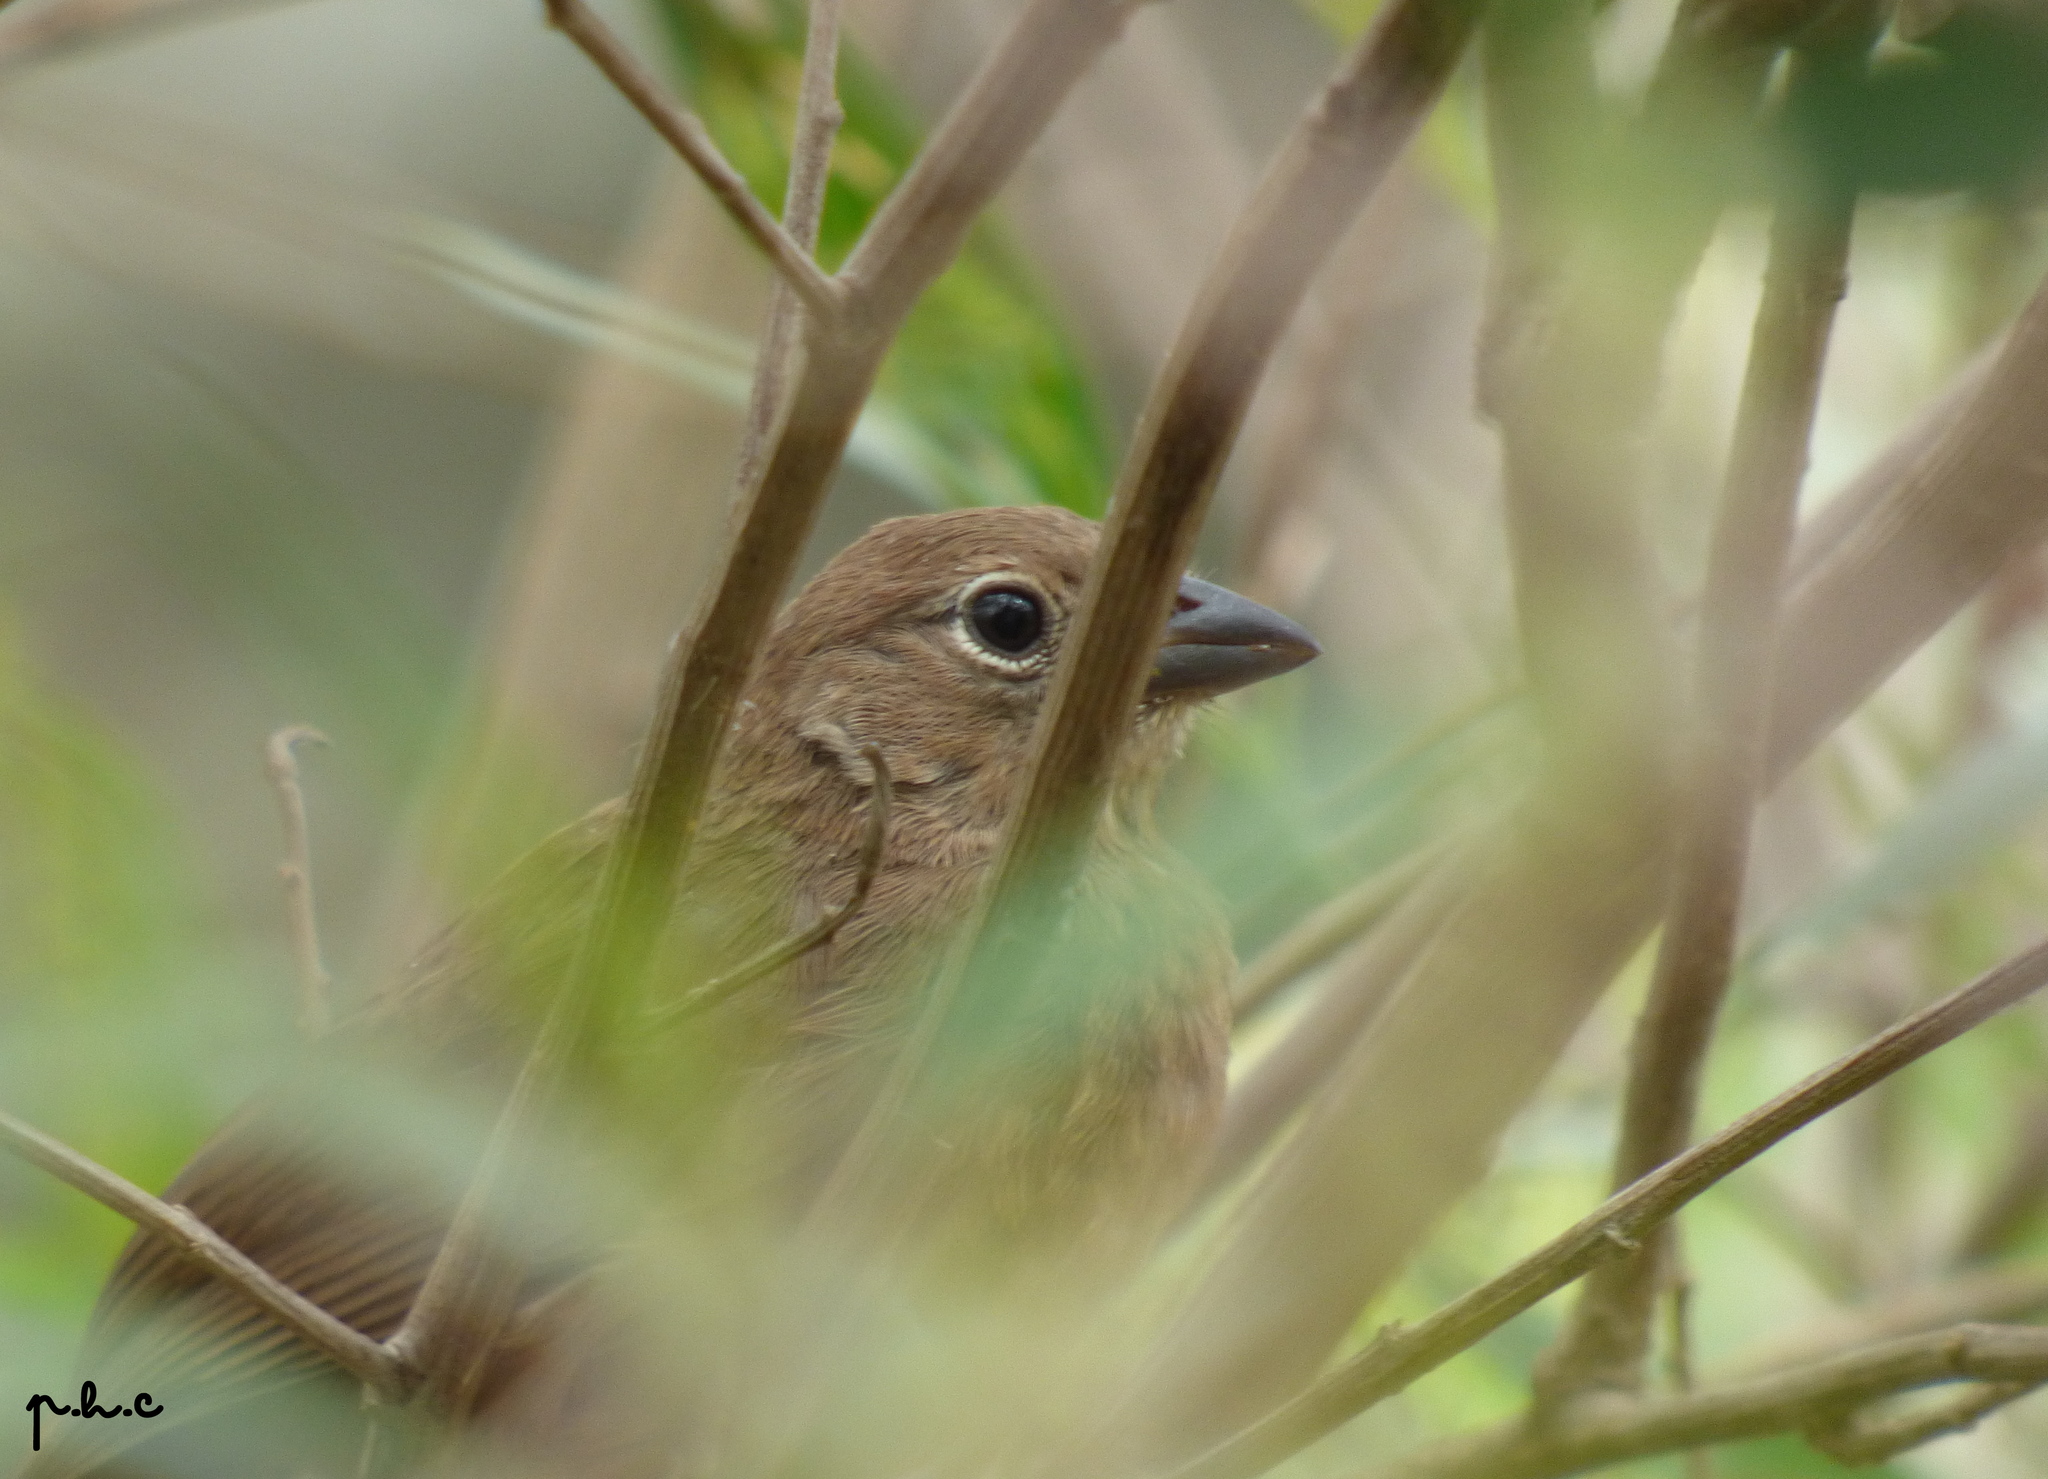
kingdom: Animalia
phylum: Chordata
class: Aves
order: Passeriformes
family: Thraupidae
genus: Coryphospingus
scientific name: Coryphospingus cucullatus
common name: Red pileated finch
